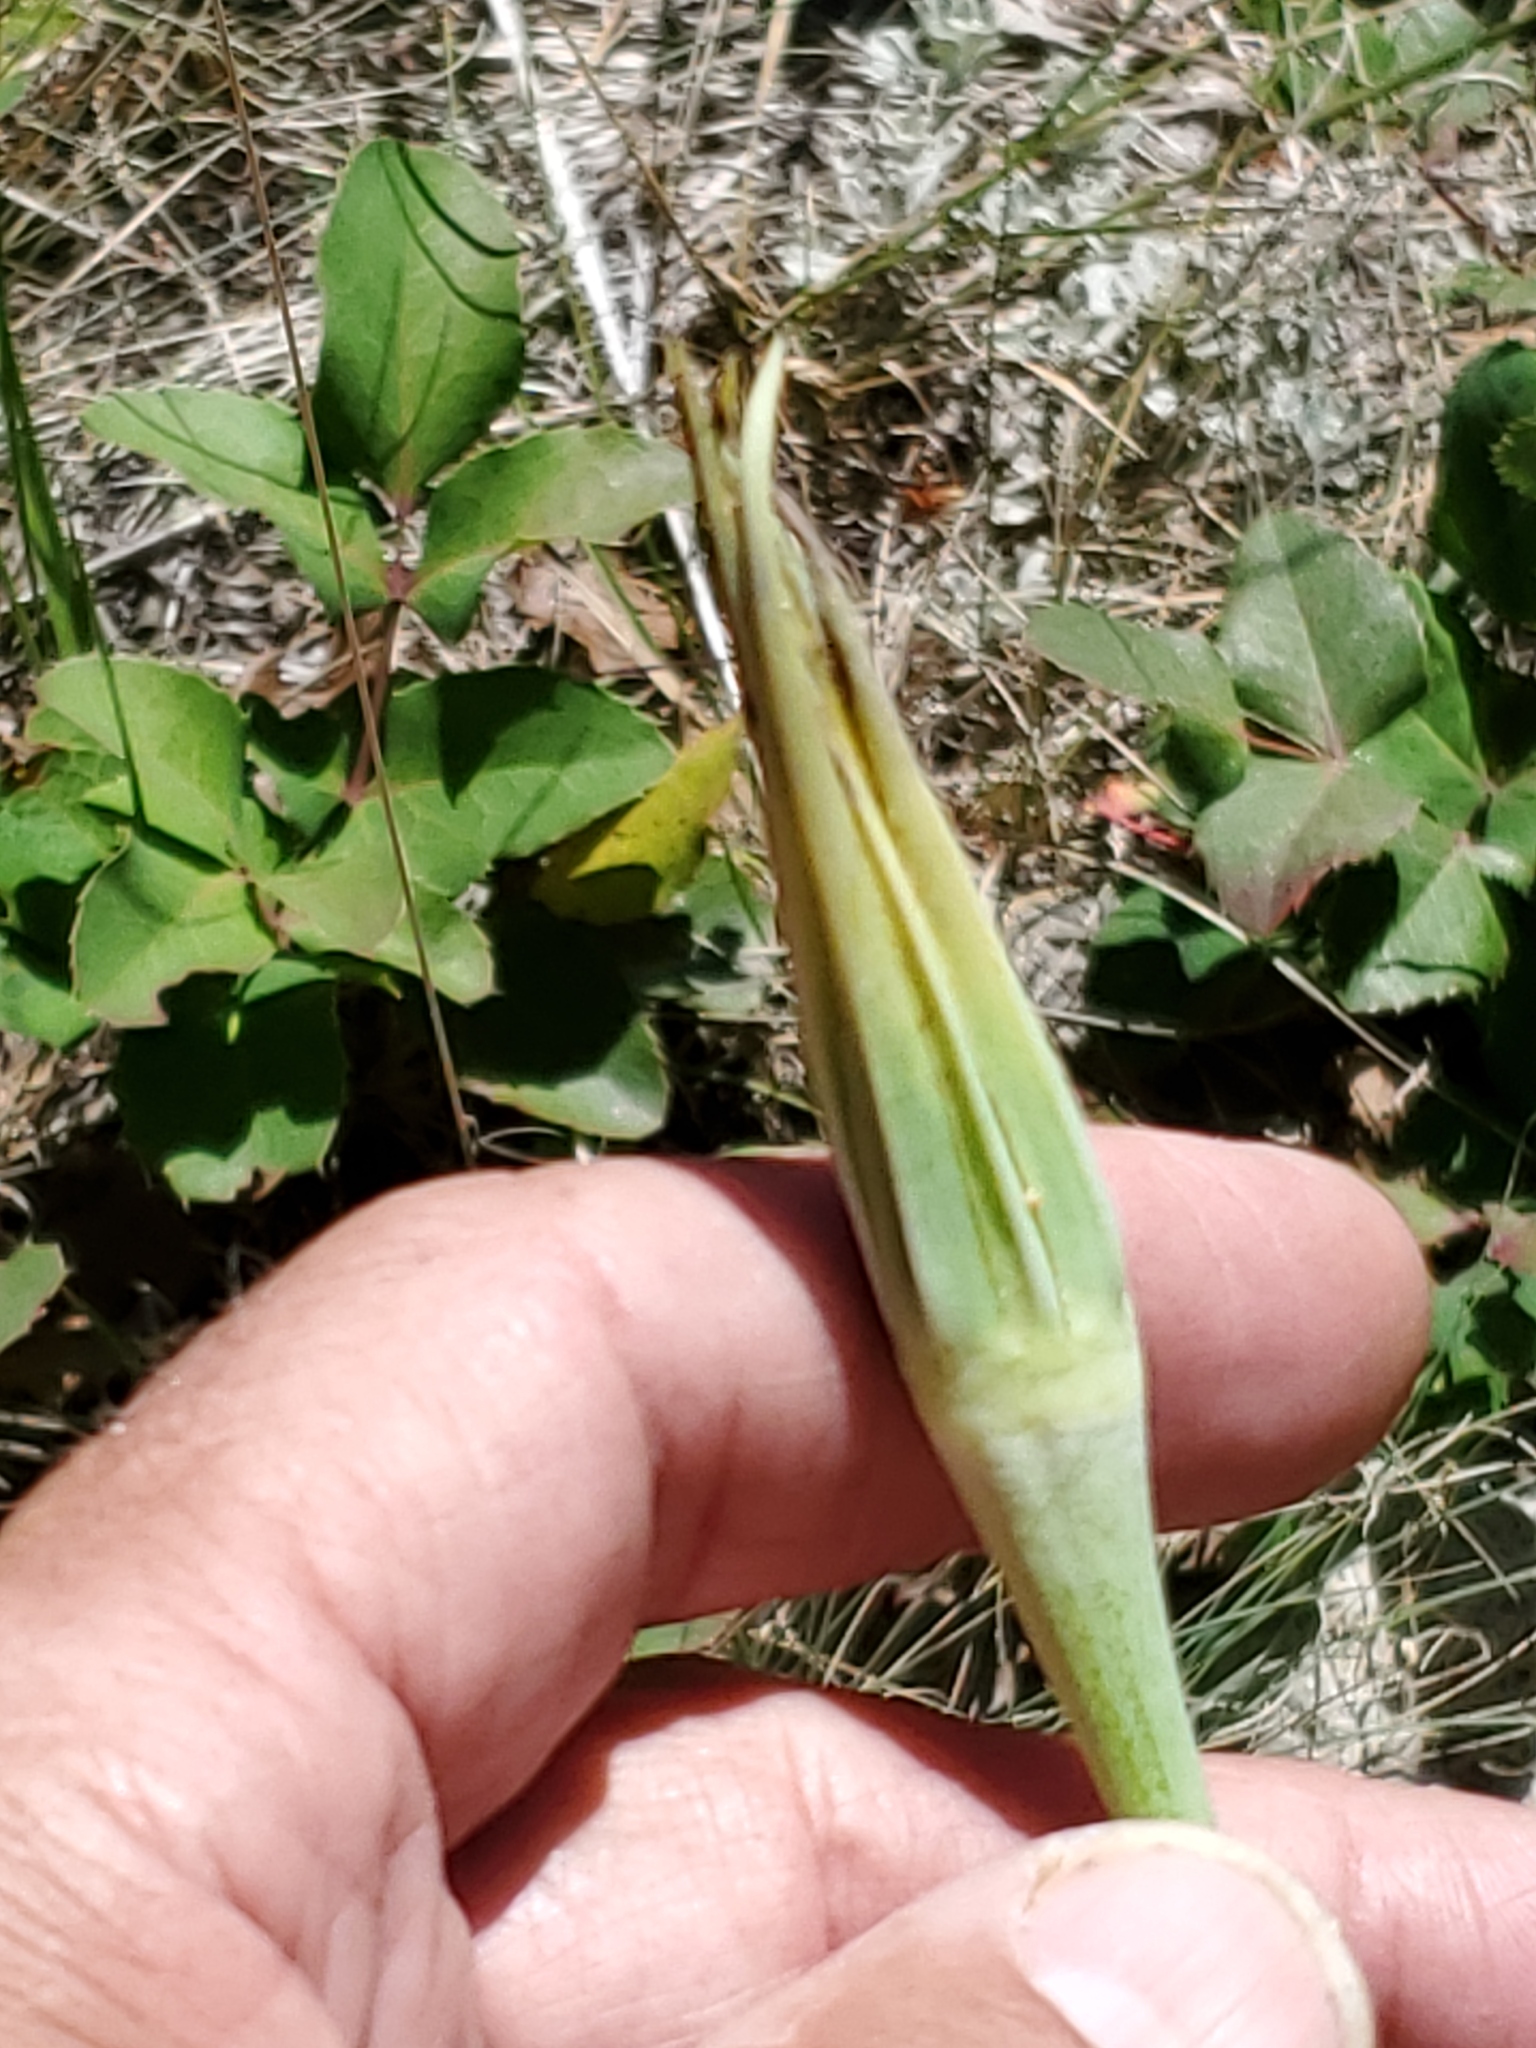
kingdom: Plantae
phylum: Tracheophyta
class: Magnoliopsida
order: Asterales
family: Asteraceae
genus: Tragopogon
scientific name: Tragopogon dubius
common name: Yellow salsify
